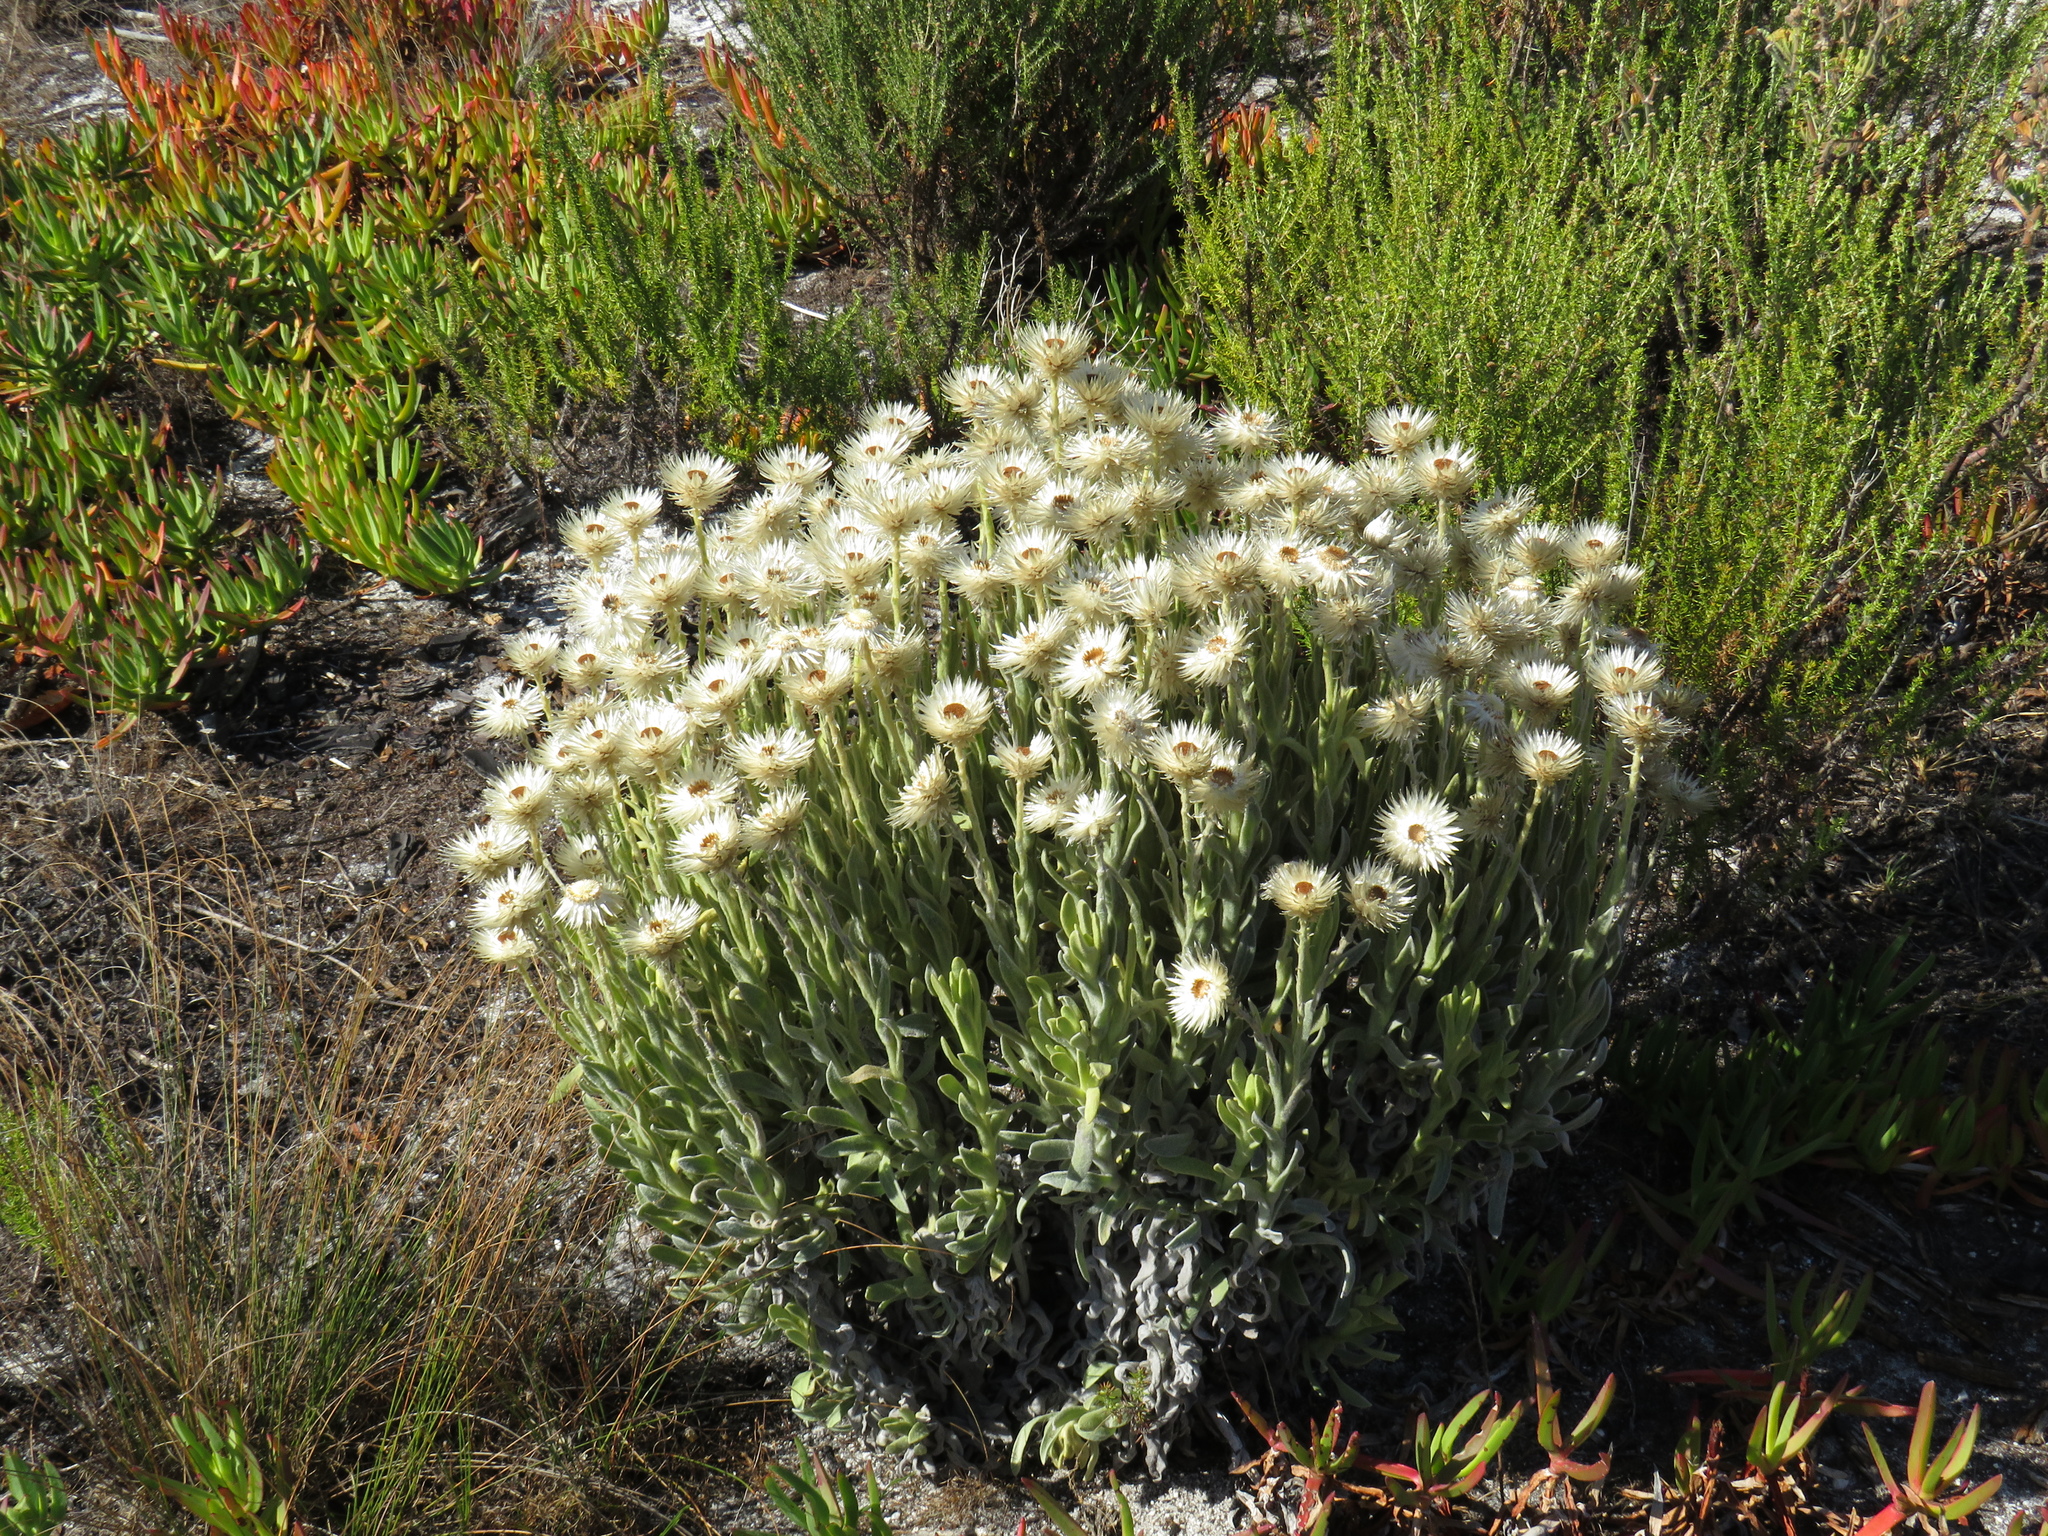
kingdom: Plantae
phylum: Tracheophyta
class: Magnoliopsida
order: Asterales
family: Asteraceae
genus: Syncarpha
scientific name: Syncarpha vestita
